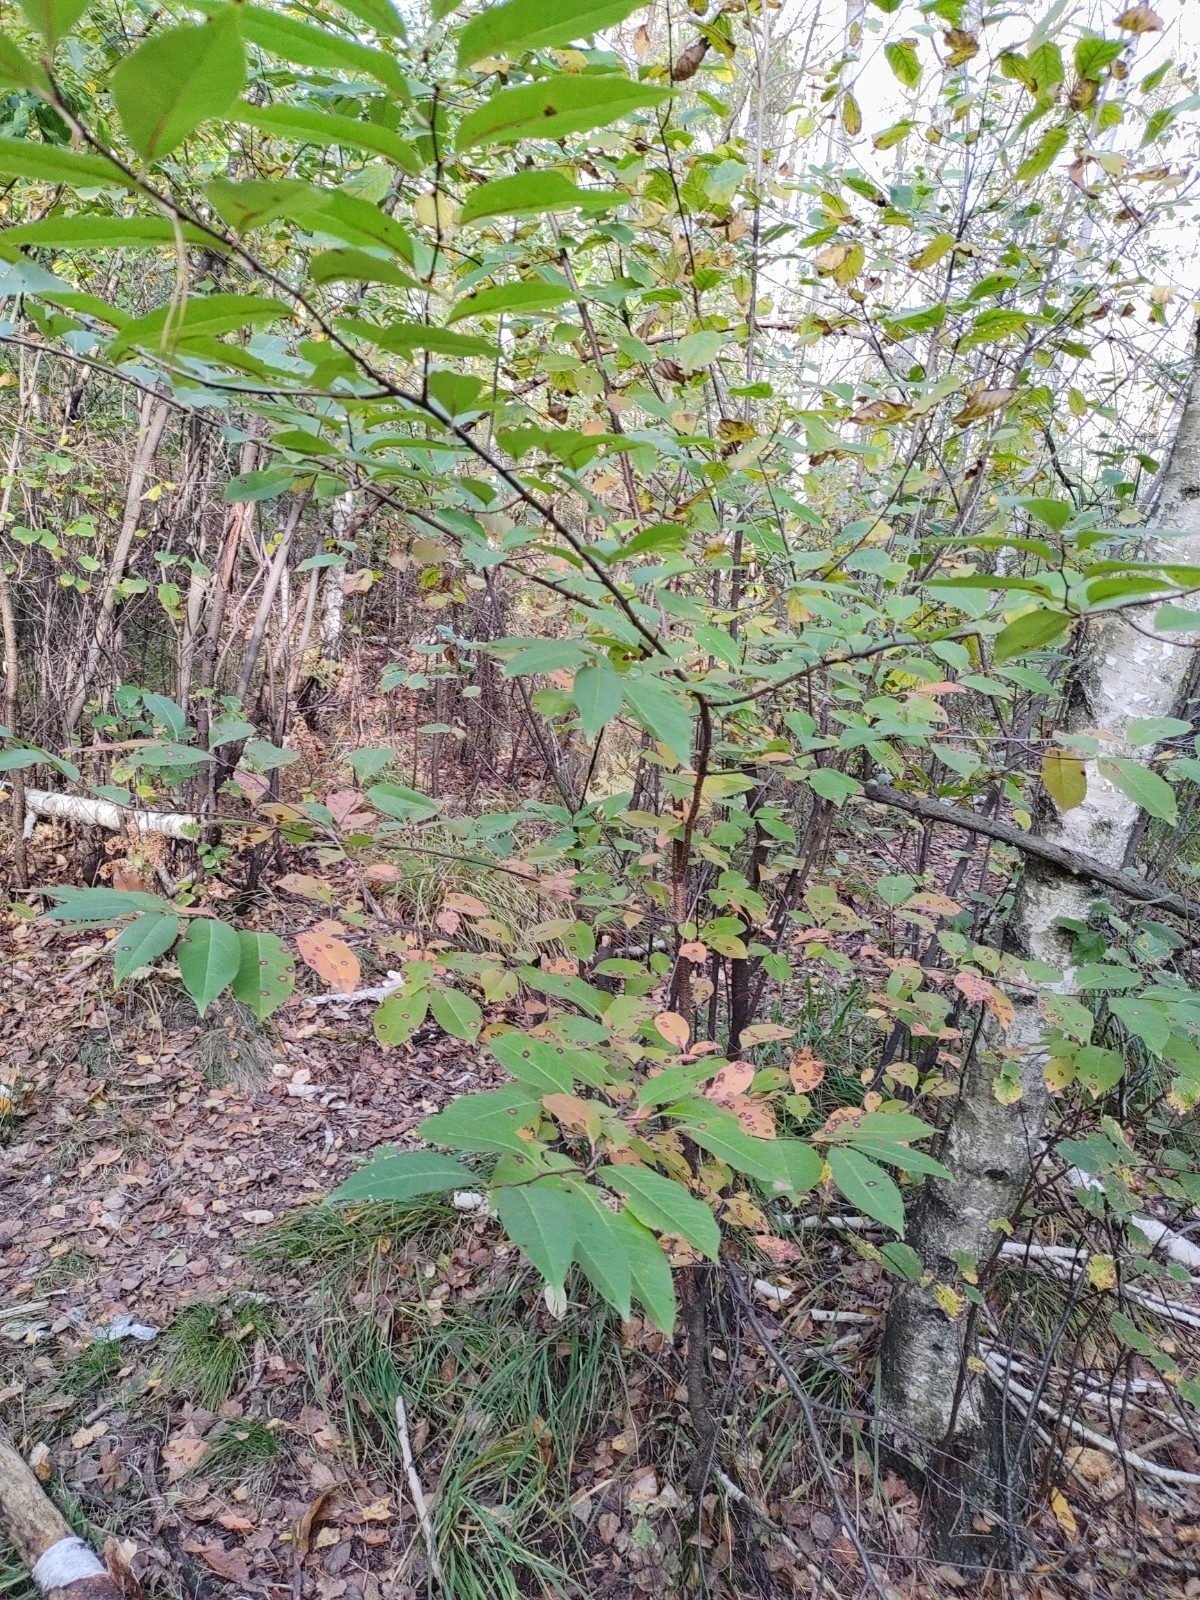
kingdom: Plantae
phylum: Tracheophyta
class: Magnoliopsida
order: Rosales
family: Rosaceae
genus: Prunus
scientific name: Prunus serotina
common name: Black cherry
